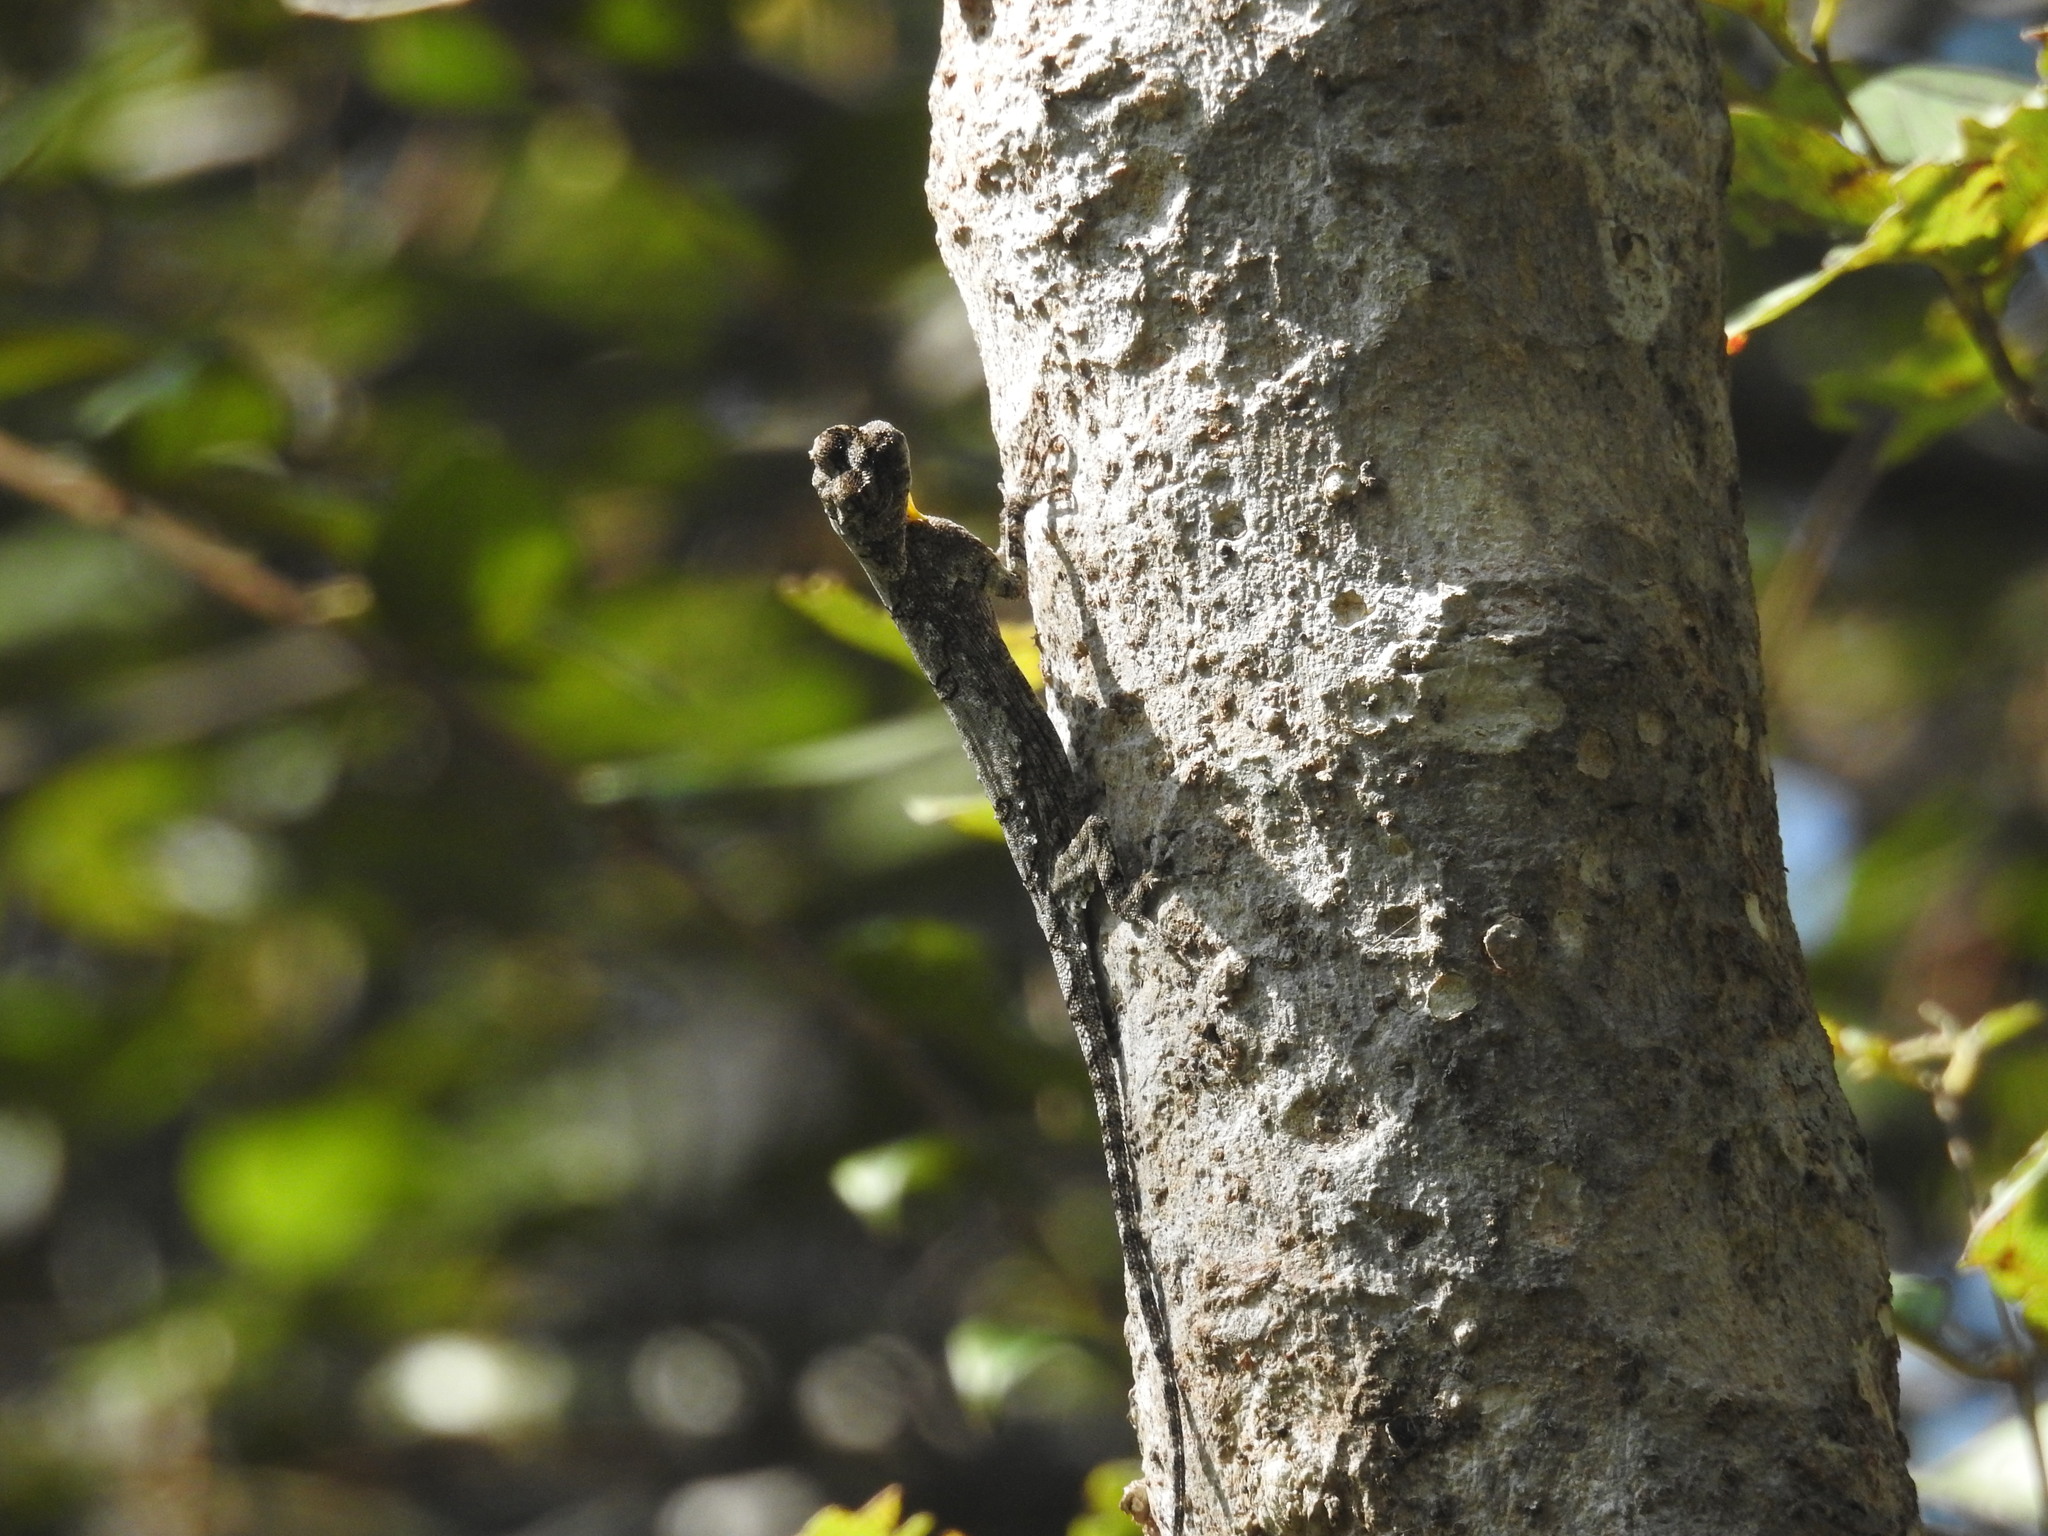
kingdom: Animalia
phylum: Chordata
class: Squamata
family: Agamidae
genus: Draco
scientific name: Draco dussumieri
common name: Southern flying lizard
